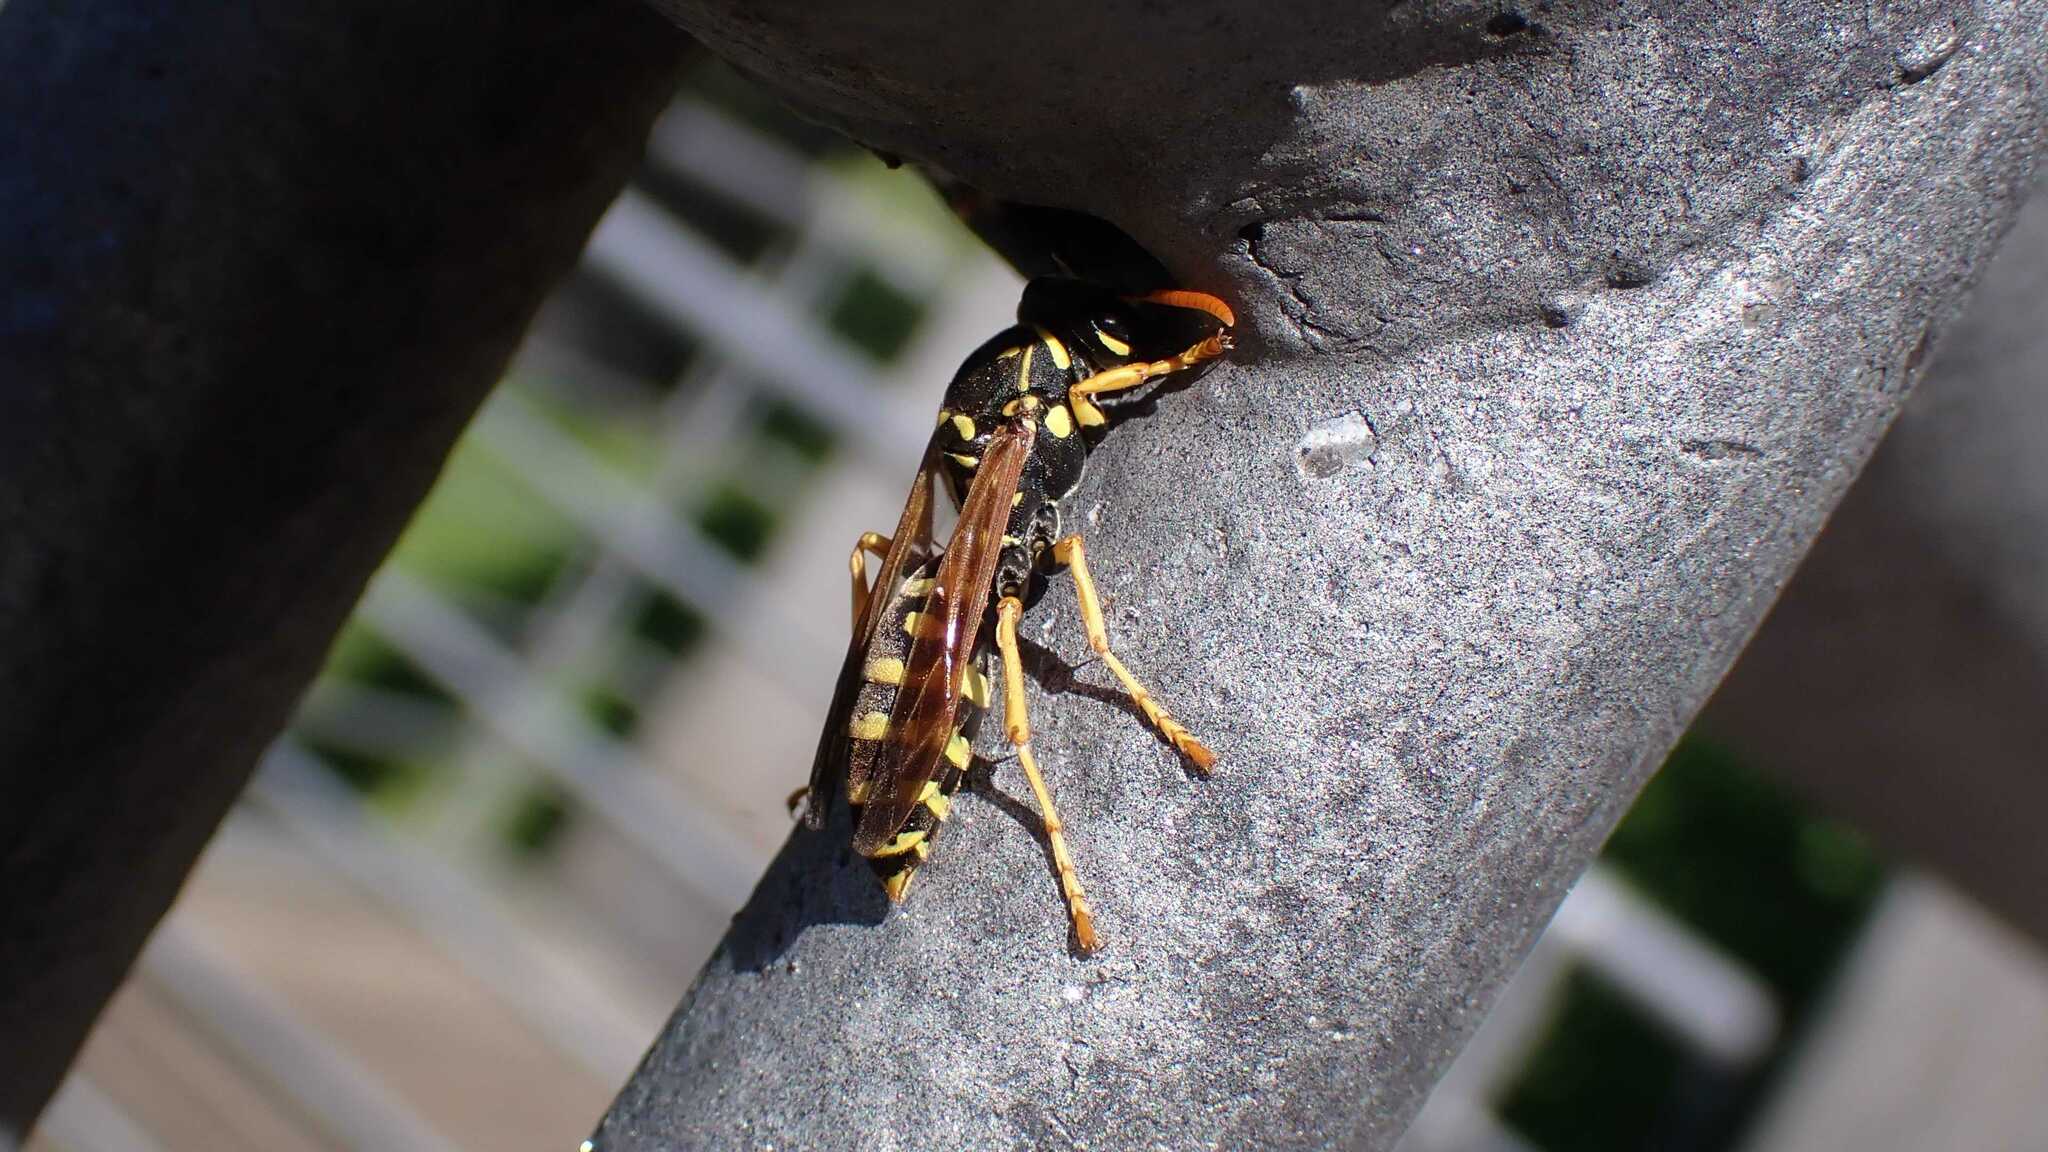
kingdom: Animalia
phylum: Arthropoda
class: Insecta
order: Hymenoptera
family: Eumenidae
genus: Polistes
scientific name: Polistes dominula
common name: Paper wasp
